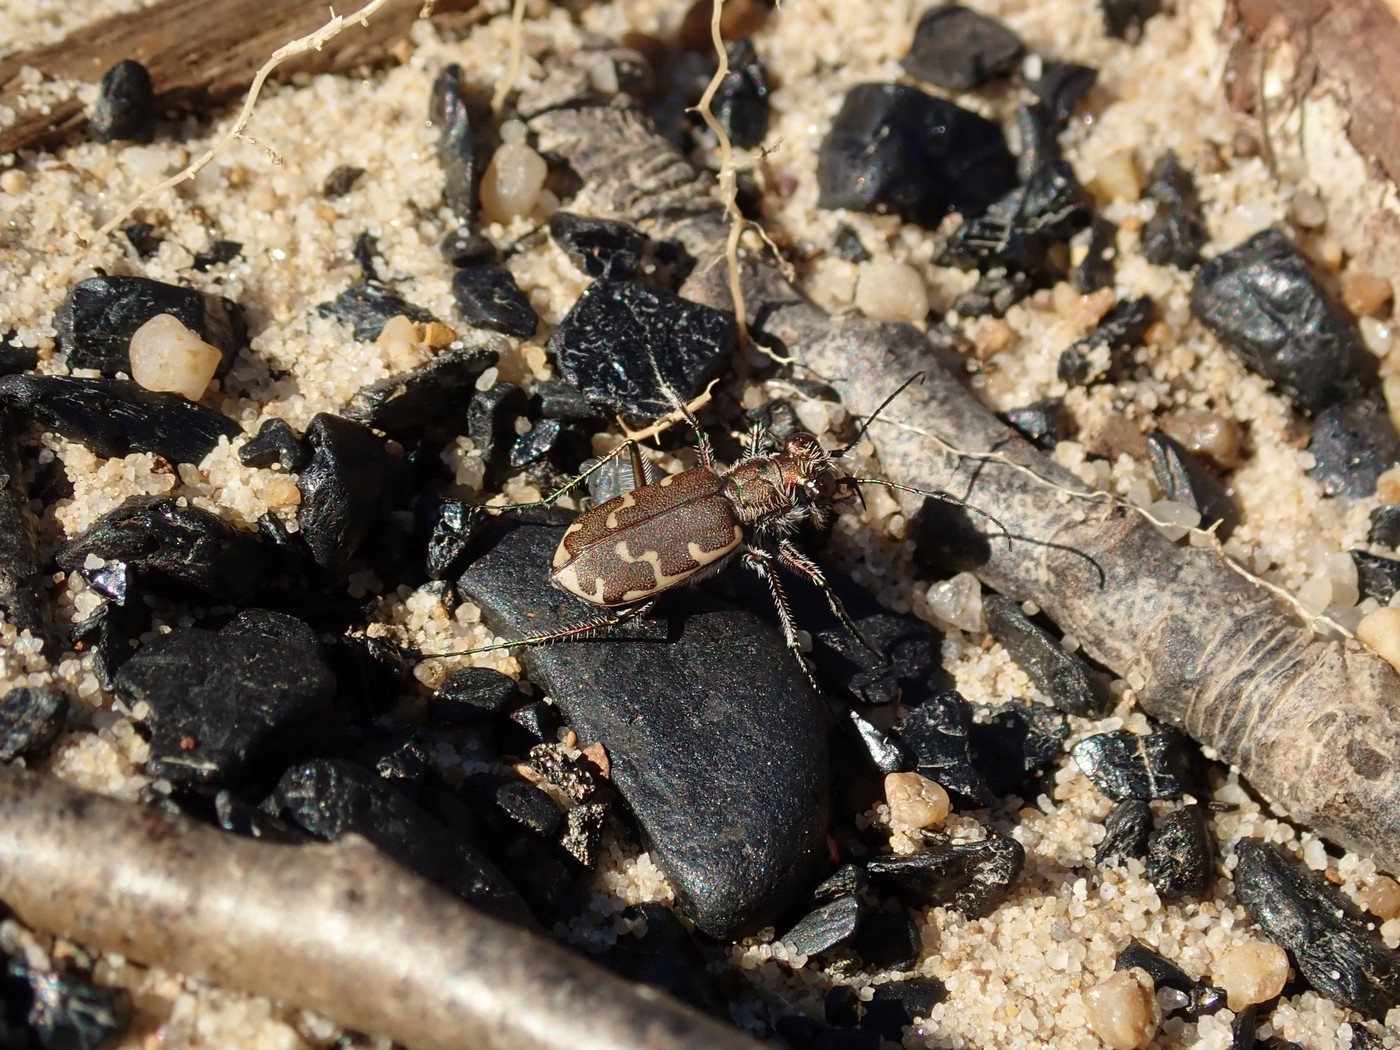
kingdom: Animalia
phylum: Arthropoda
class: Insecta
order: Coleoptera
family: Carabidae
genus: Cicindela
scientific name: Cicindela repanda
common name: Bronzed tiger beetle
